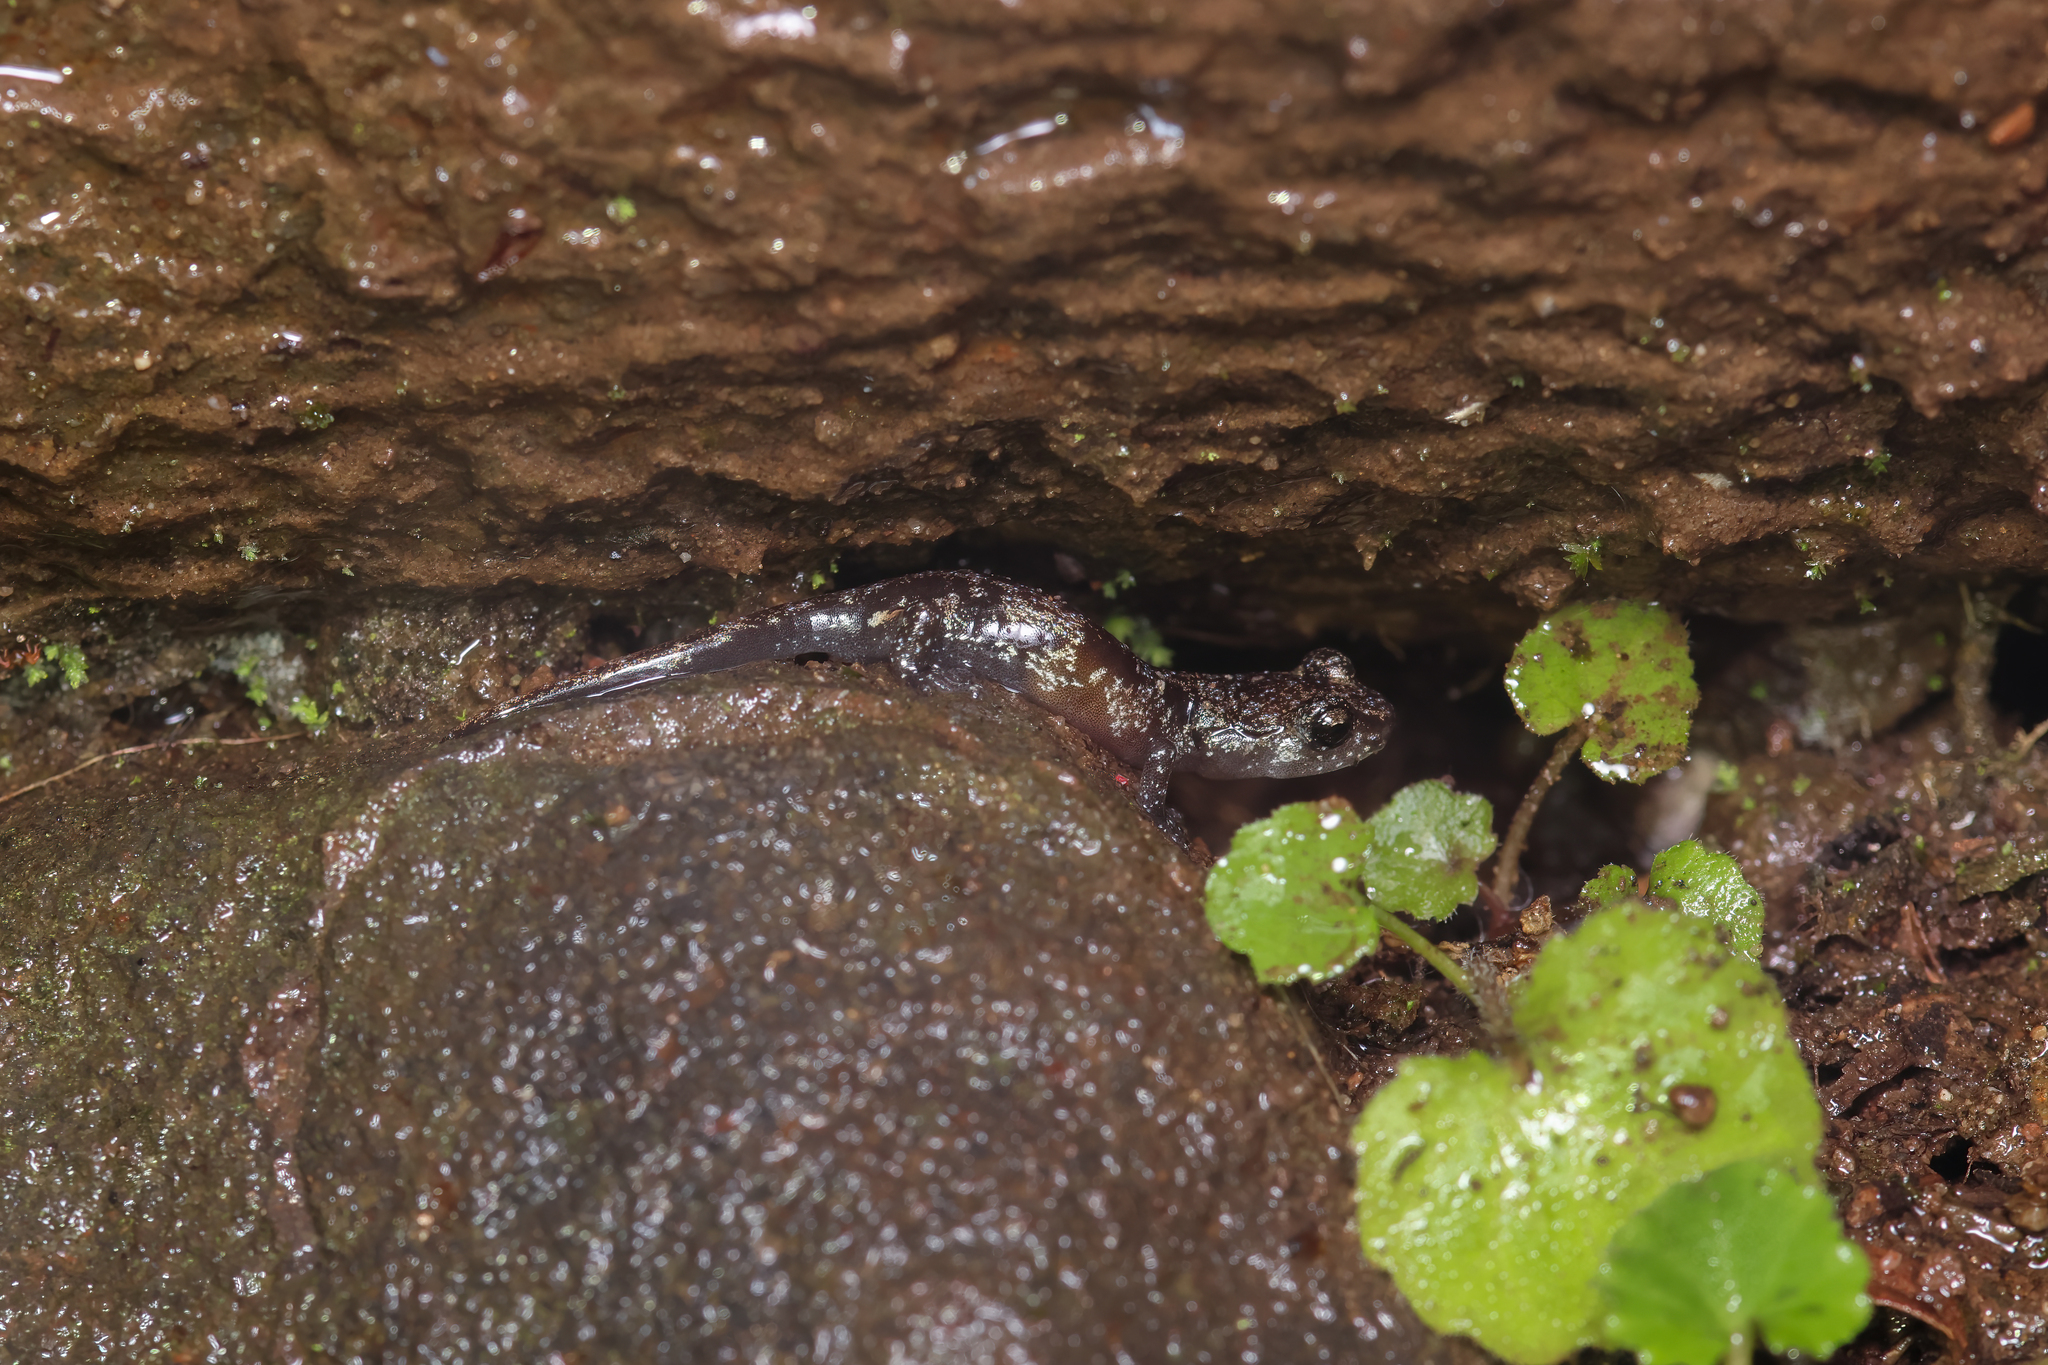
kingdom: Animalia
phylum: Chordata
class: Amphibia
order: Caudata
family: Plethodontidae
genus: Aneides
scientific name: Aneides lugubris
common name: Arboreal salamander
